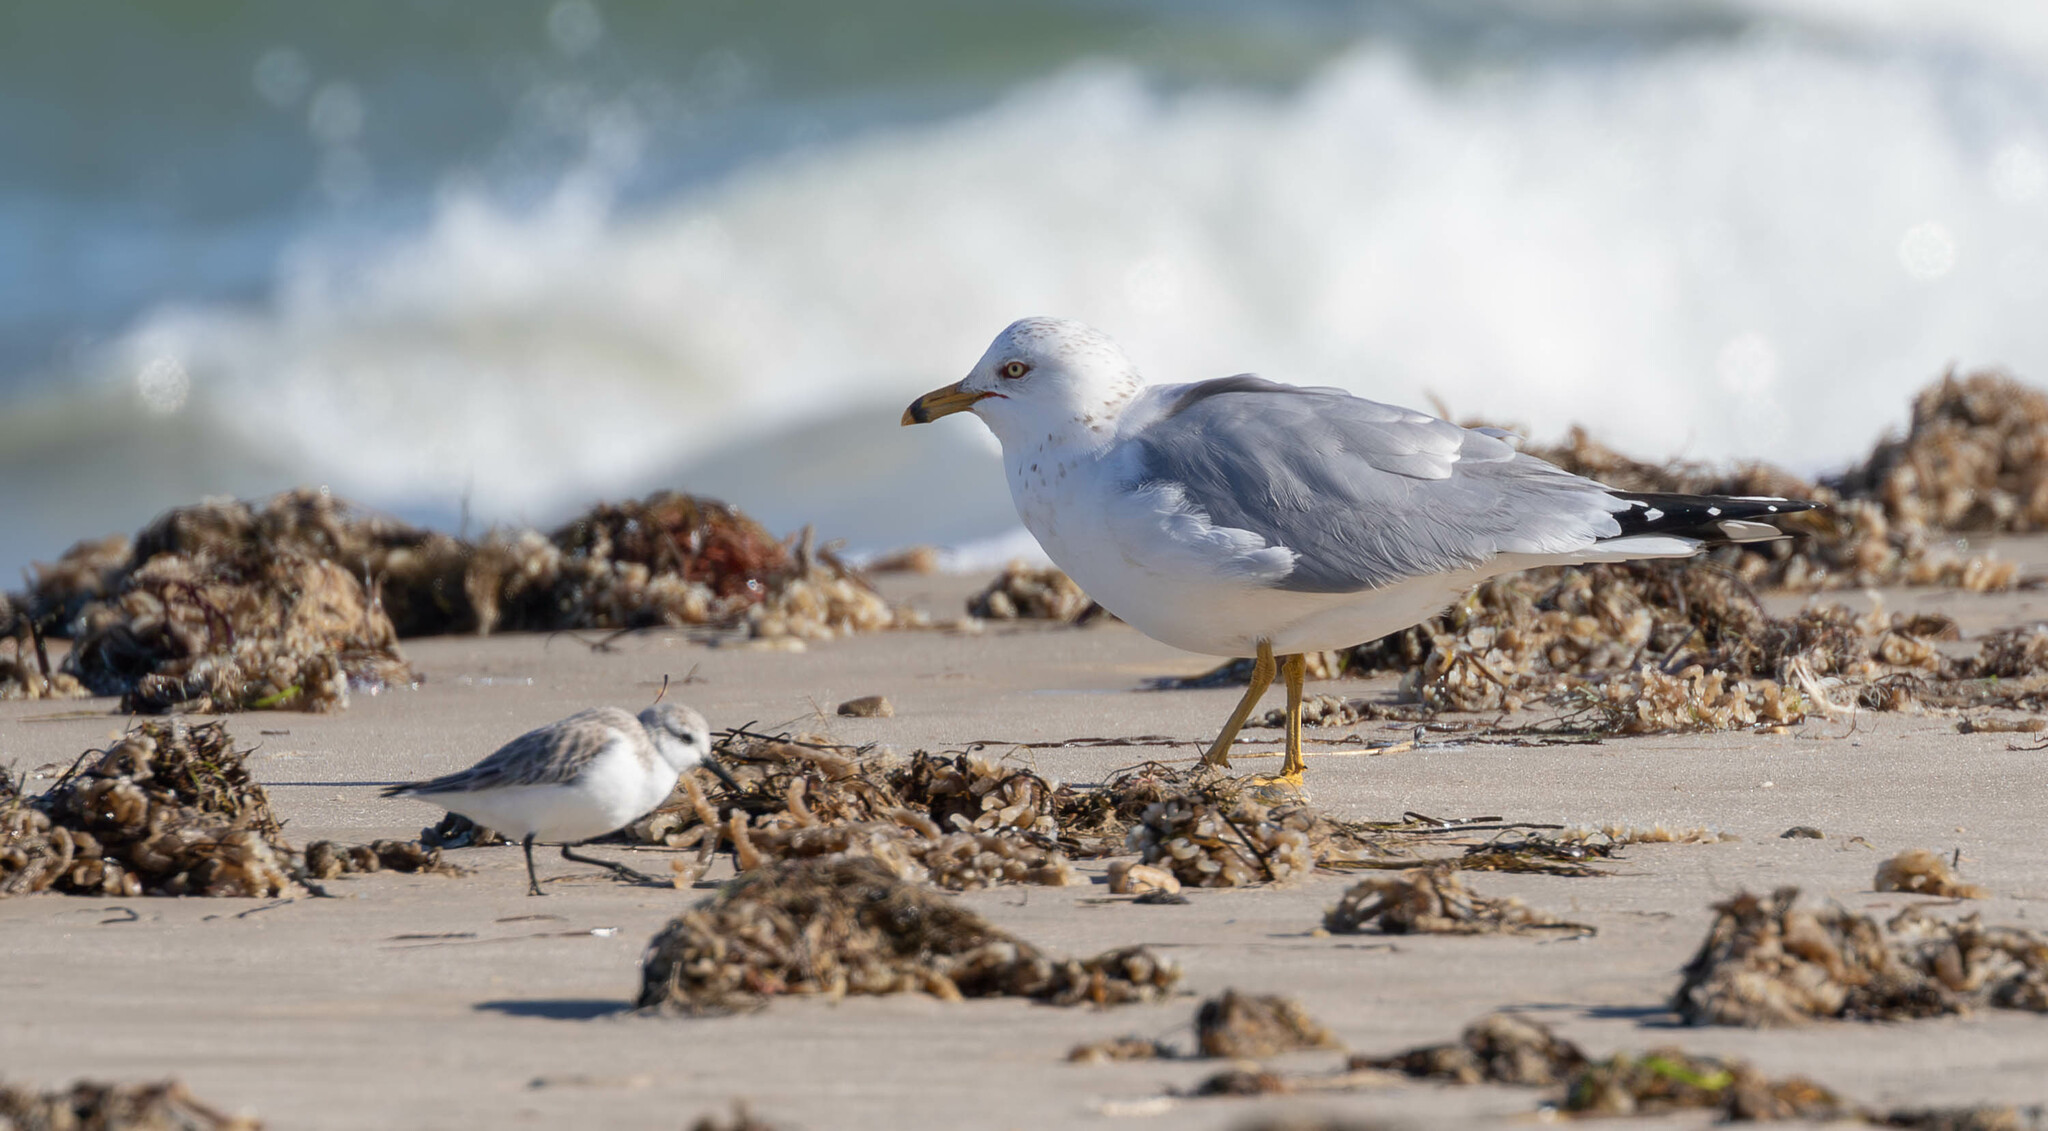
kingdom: Animalia
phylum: Chordata
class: Aves
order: Charadriiformes
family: Laridae
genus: Larus
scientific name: Larus delawarensis
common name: Ring-billed gull
